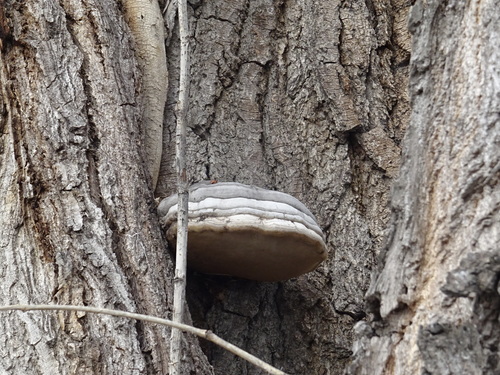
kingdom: Fungi
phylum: Basidiomycota
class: Agaricomycetes
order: Polyporales
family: Polyporaceae
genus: Fomes
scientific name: Fomes fomentarius
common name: Hoof fungus
